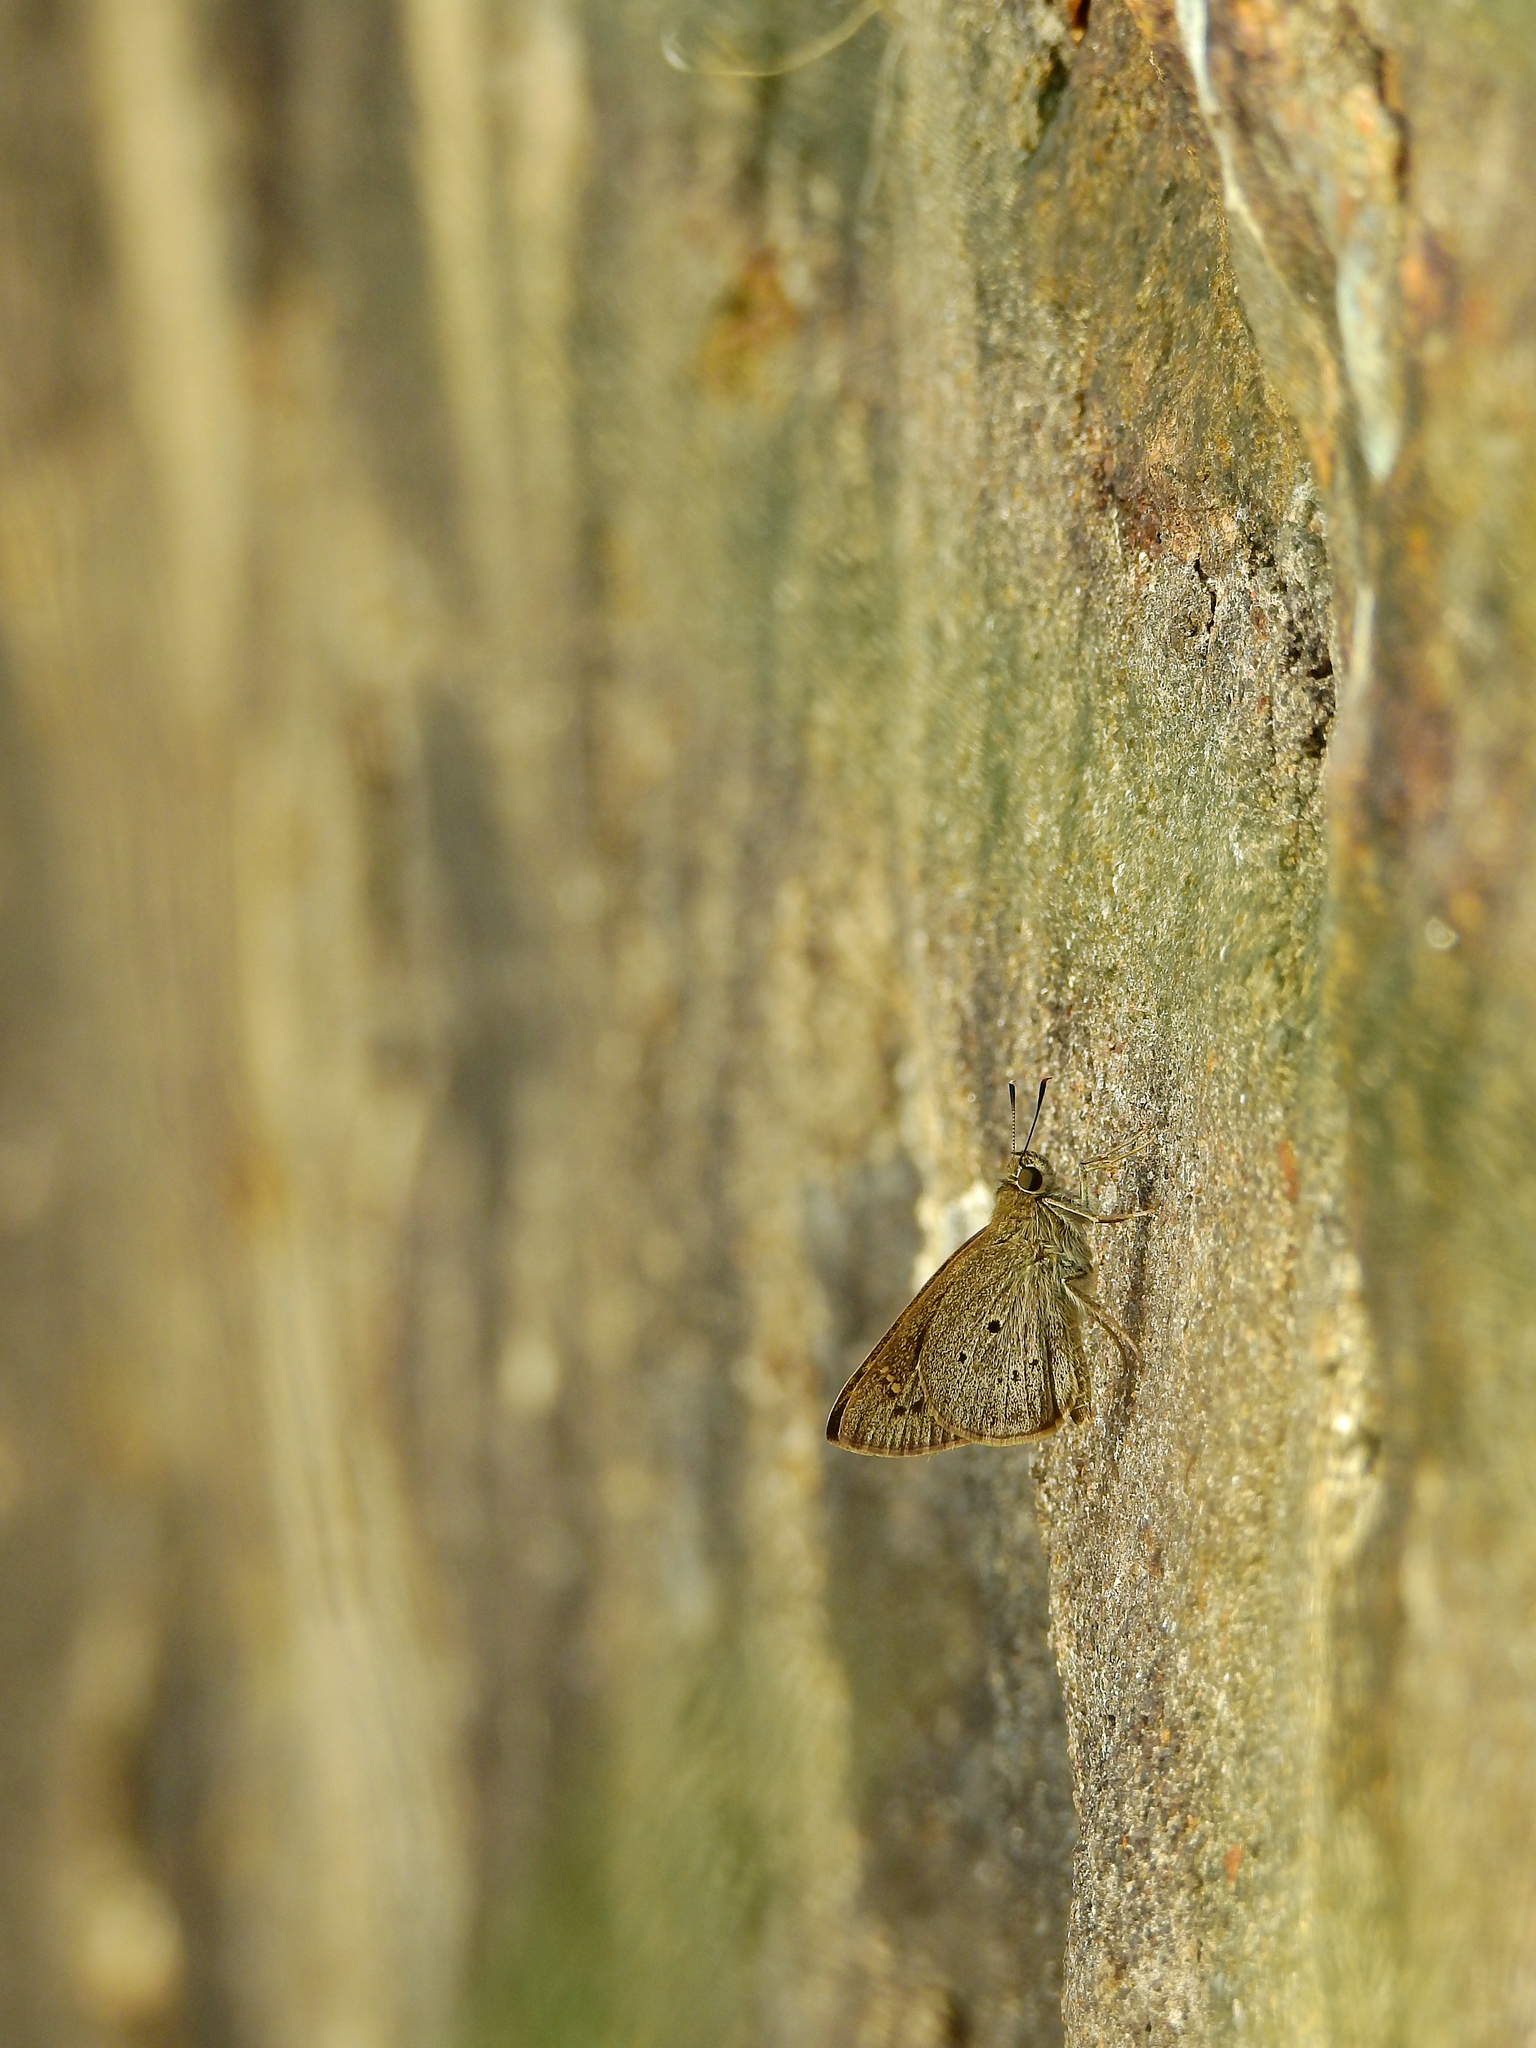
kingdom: Animalia
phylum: Arthropoda
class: Insecta
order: Lepidoptera
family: Hesperiidae
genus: Suastus
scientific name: Suastus gremius
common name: Indian palm bob
